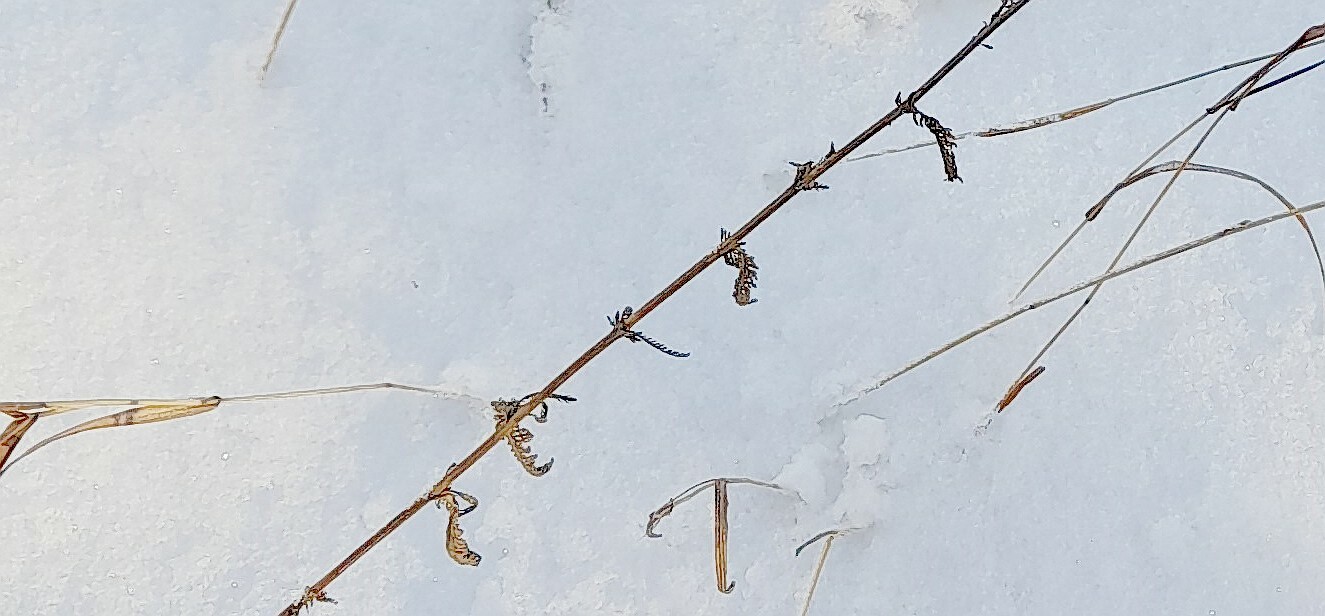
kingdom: Plantae
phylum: Tracheophyta
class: Magnoliopsida
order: Asterales
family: Asteraceae
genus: Achillea
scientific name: Achillea millefolium
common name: Yarrow
